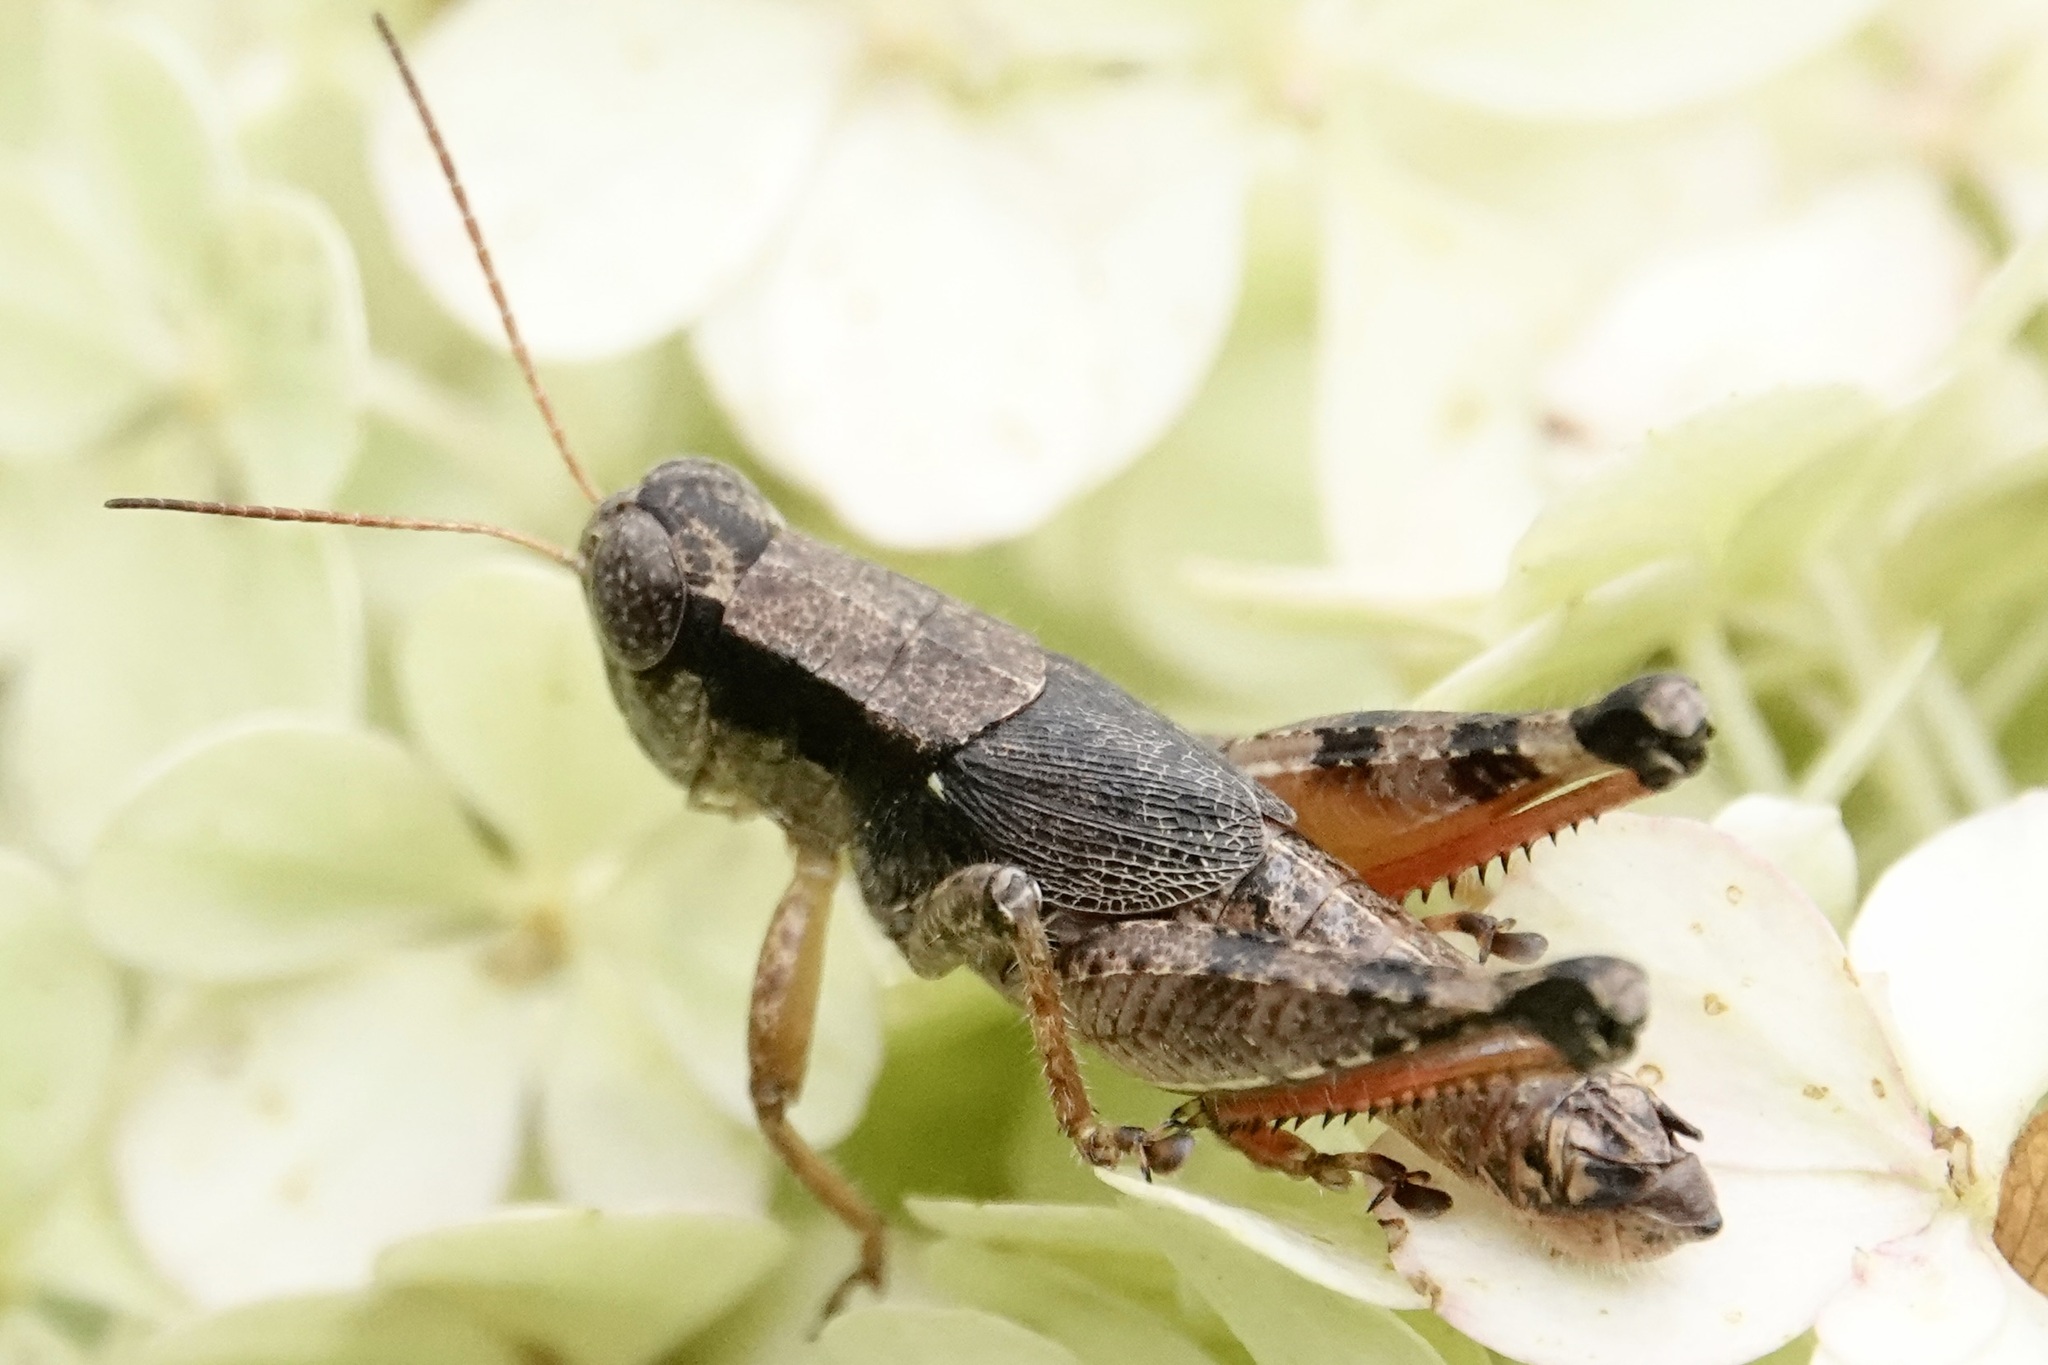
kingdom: Animalia
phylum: Arthropoda
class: Insecta
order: Orthoptera
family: Acrididae
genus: Melanoplus
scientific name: Melanoplus scudderi
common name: Scudder's short-winged locust
